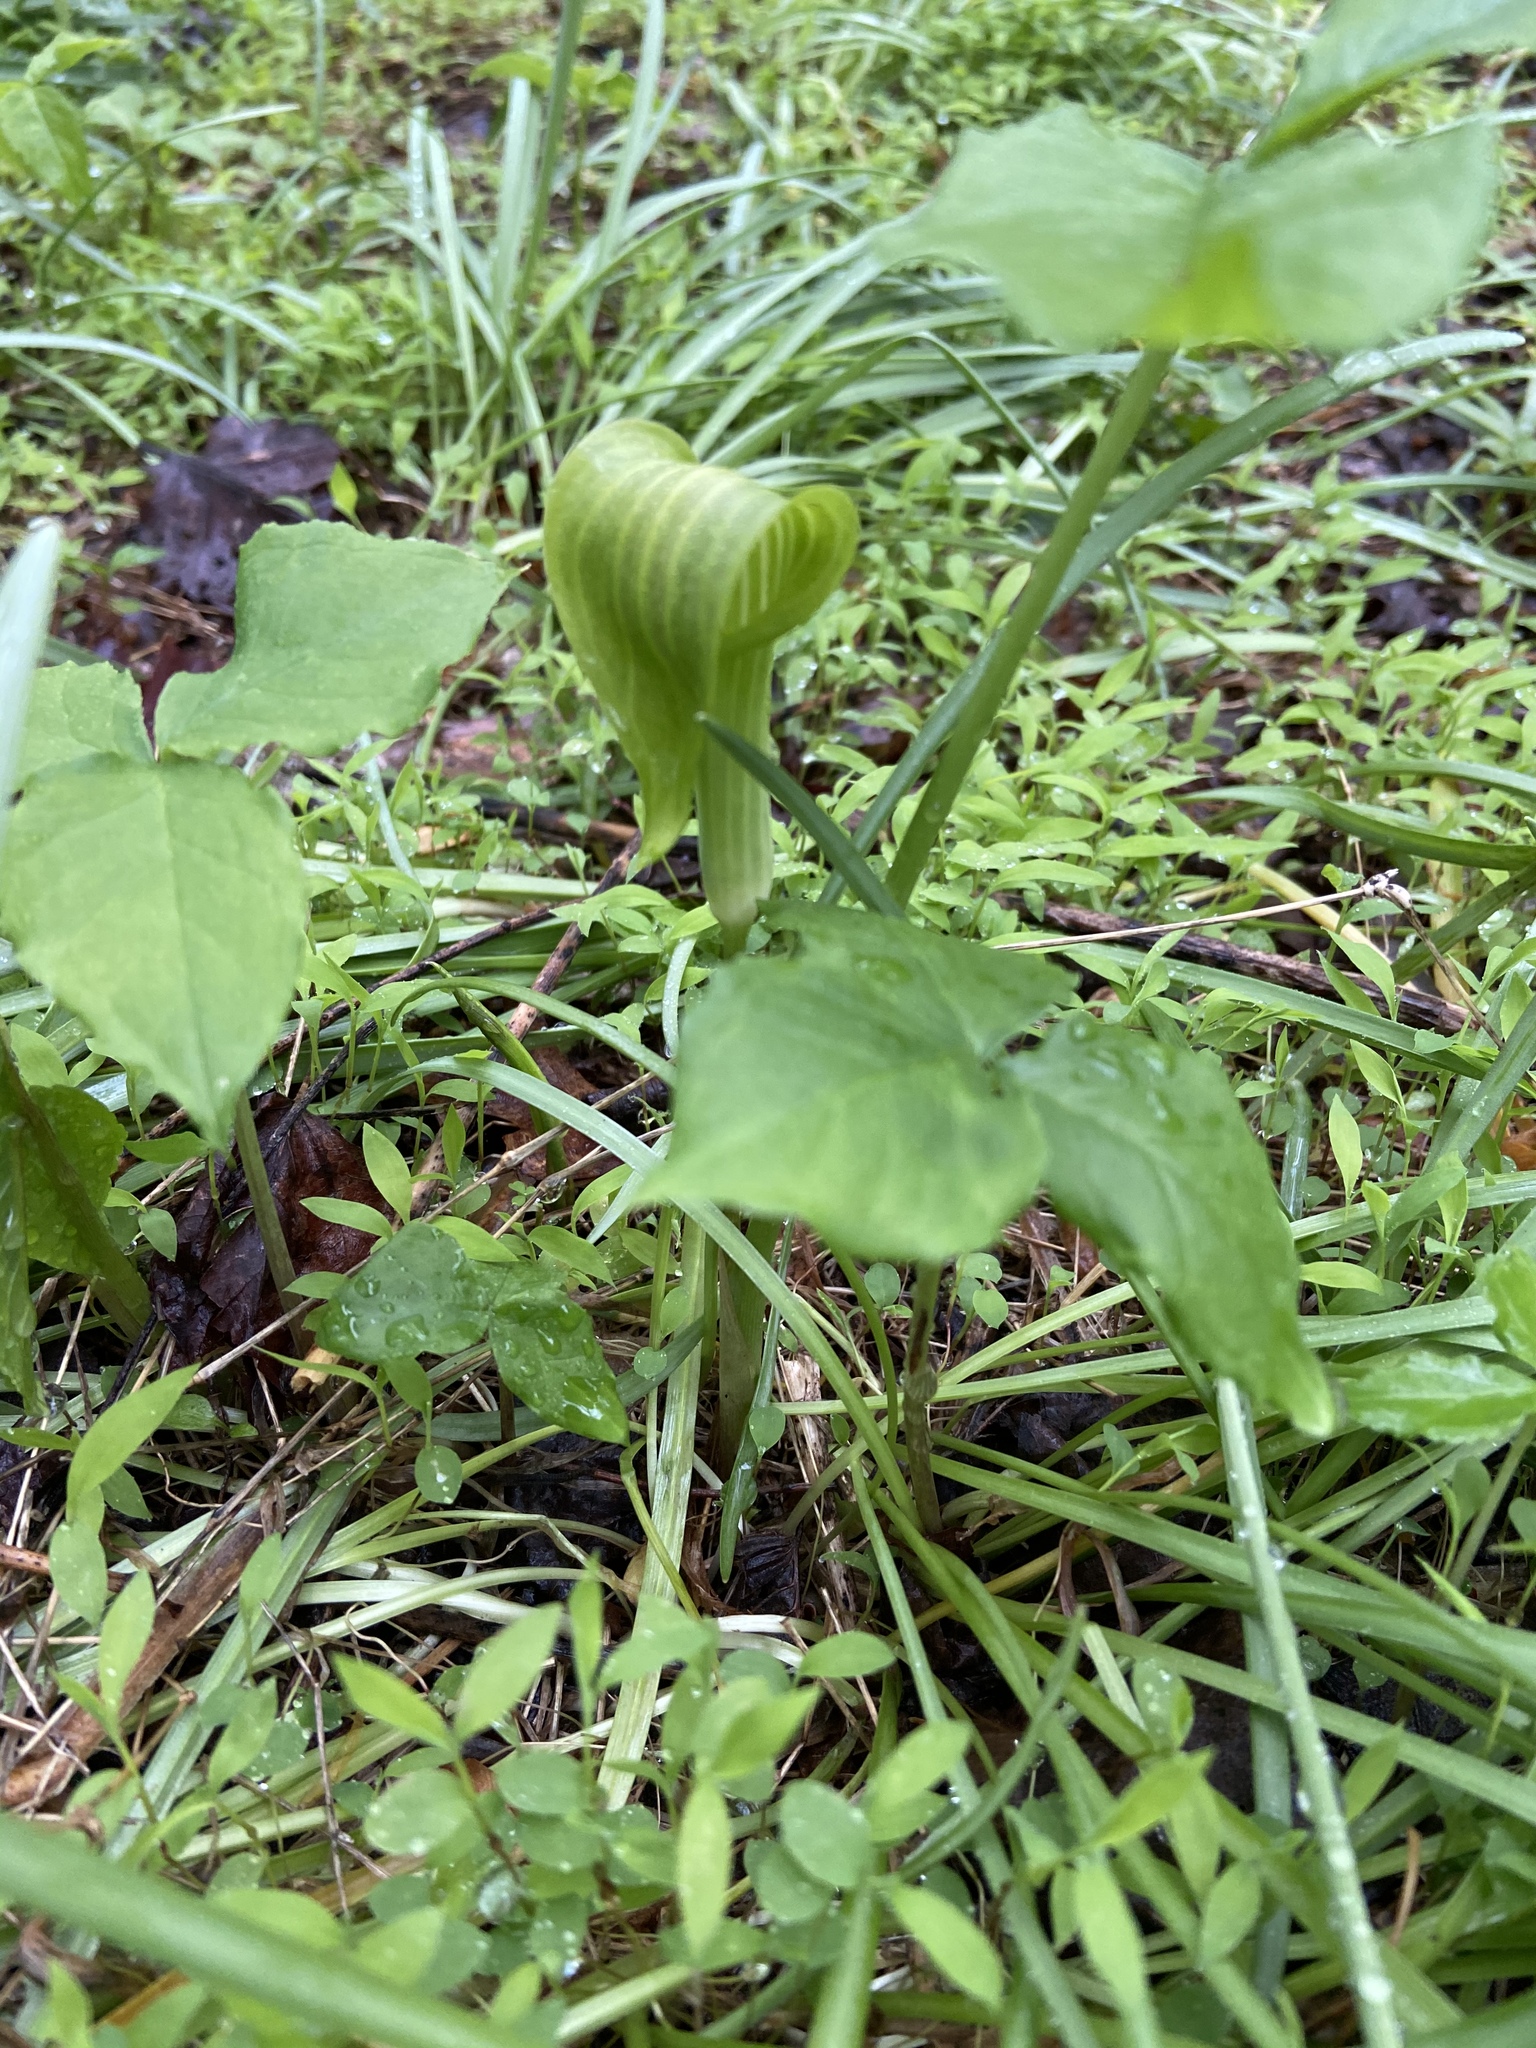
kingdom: Plantae
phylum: Tracheophyta
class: Liliopsida
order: Alismatales
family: Araceae
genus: Arisaema
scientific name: Arisaema triphyllum
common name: Jack-in-the-pulpit
